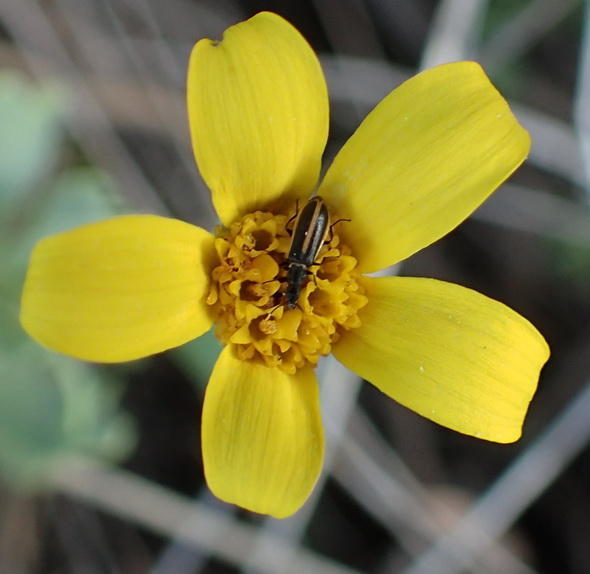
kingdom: Plantae
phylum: Tracheophyta
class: Magnoliopsida
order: Asterales
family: Asteraceae
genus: Othonna
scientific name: Othonna arborescens
